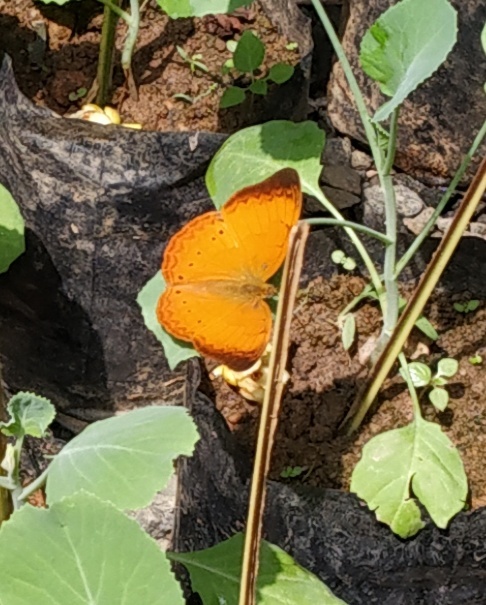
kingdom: Animalia
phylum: Arthropoda
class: Insecta
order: Lepidoptera
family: Nymphalidae
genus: Cirrochroa
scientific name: Cirrochroa thais
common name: Tamil yeoman
